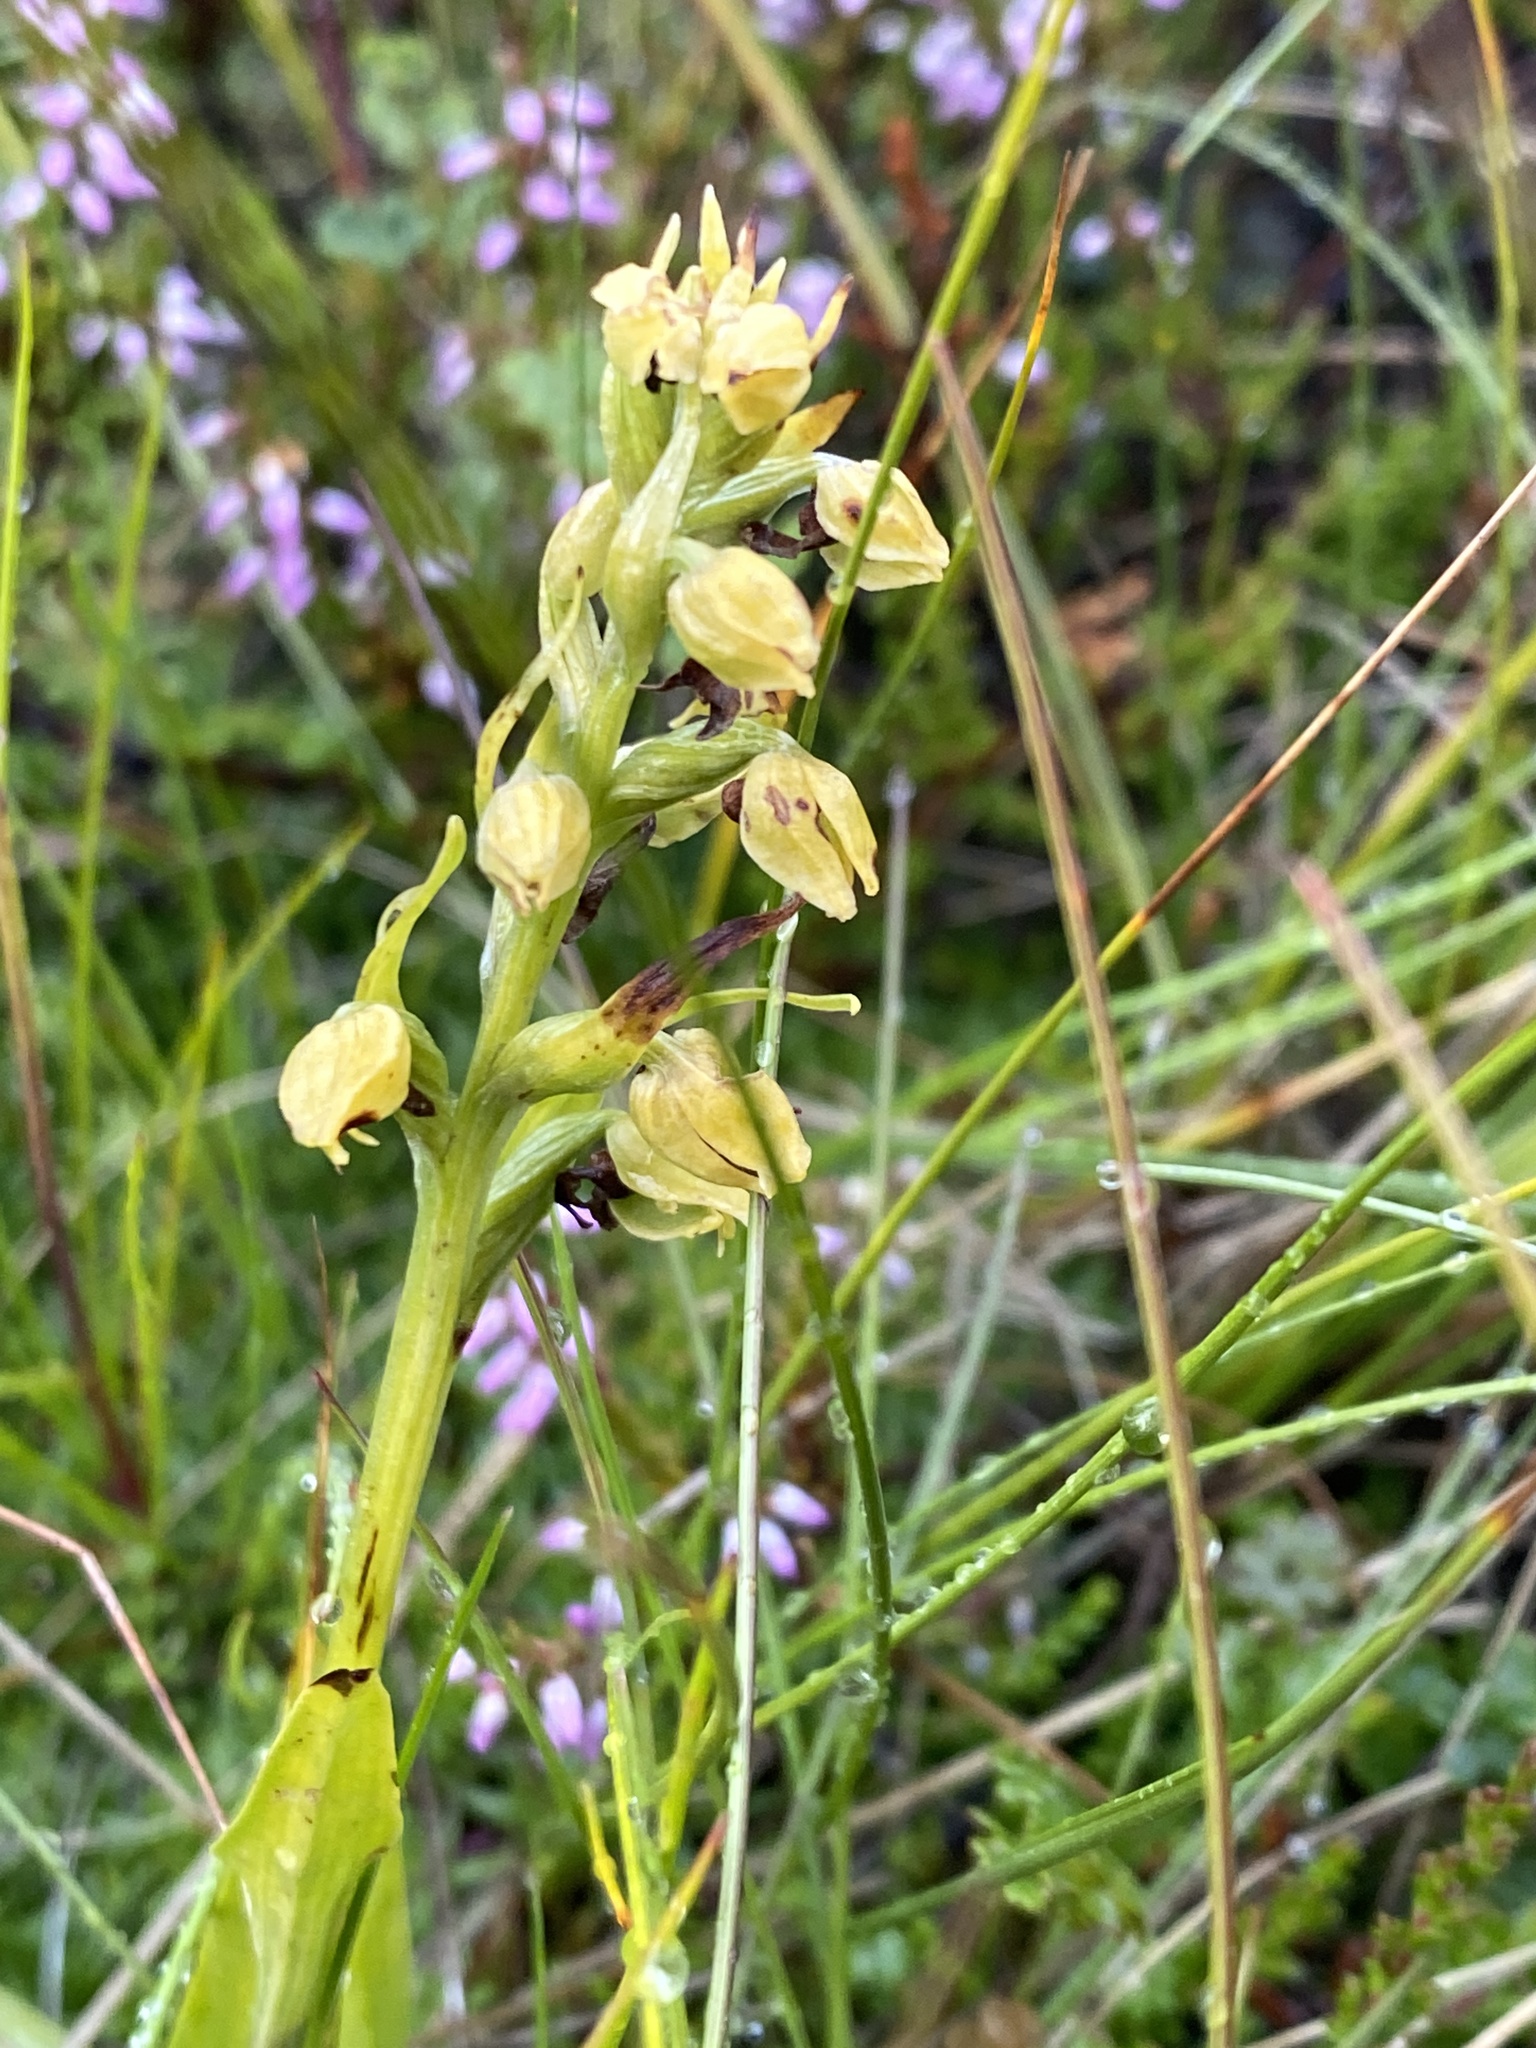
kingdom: Plantae
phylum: Tracheophyta
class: Liliopsida
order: Asparagales
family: Orchidaceae
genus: Dactylorhiza
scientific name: Dactylorhiza viridis
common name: Longbract frog orchid
